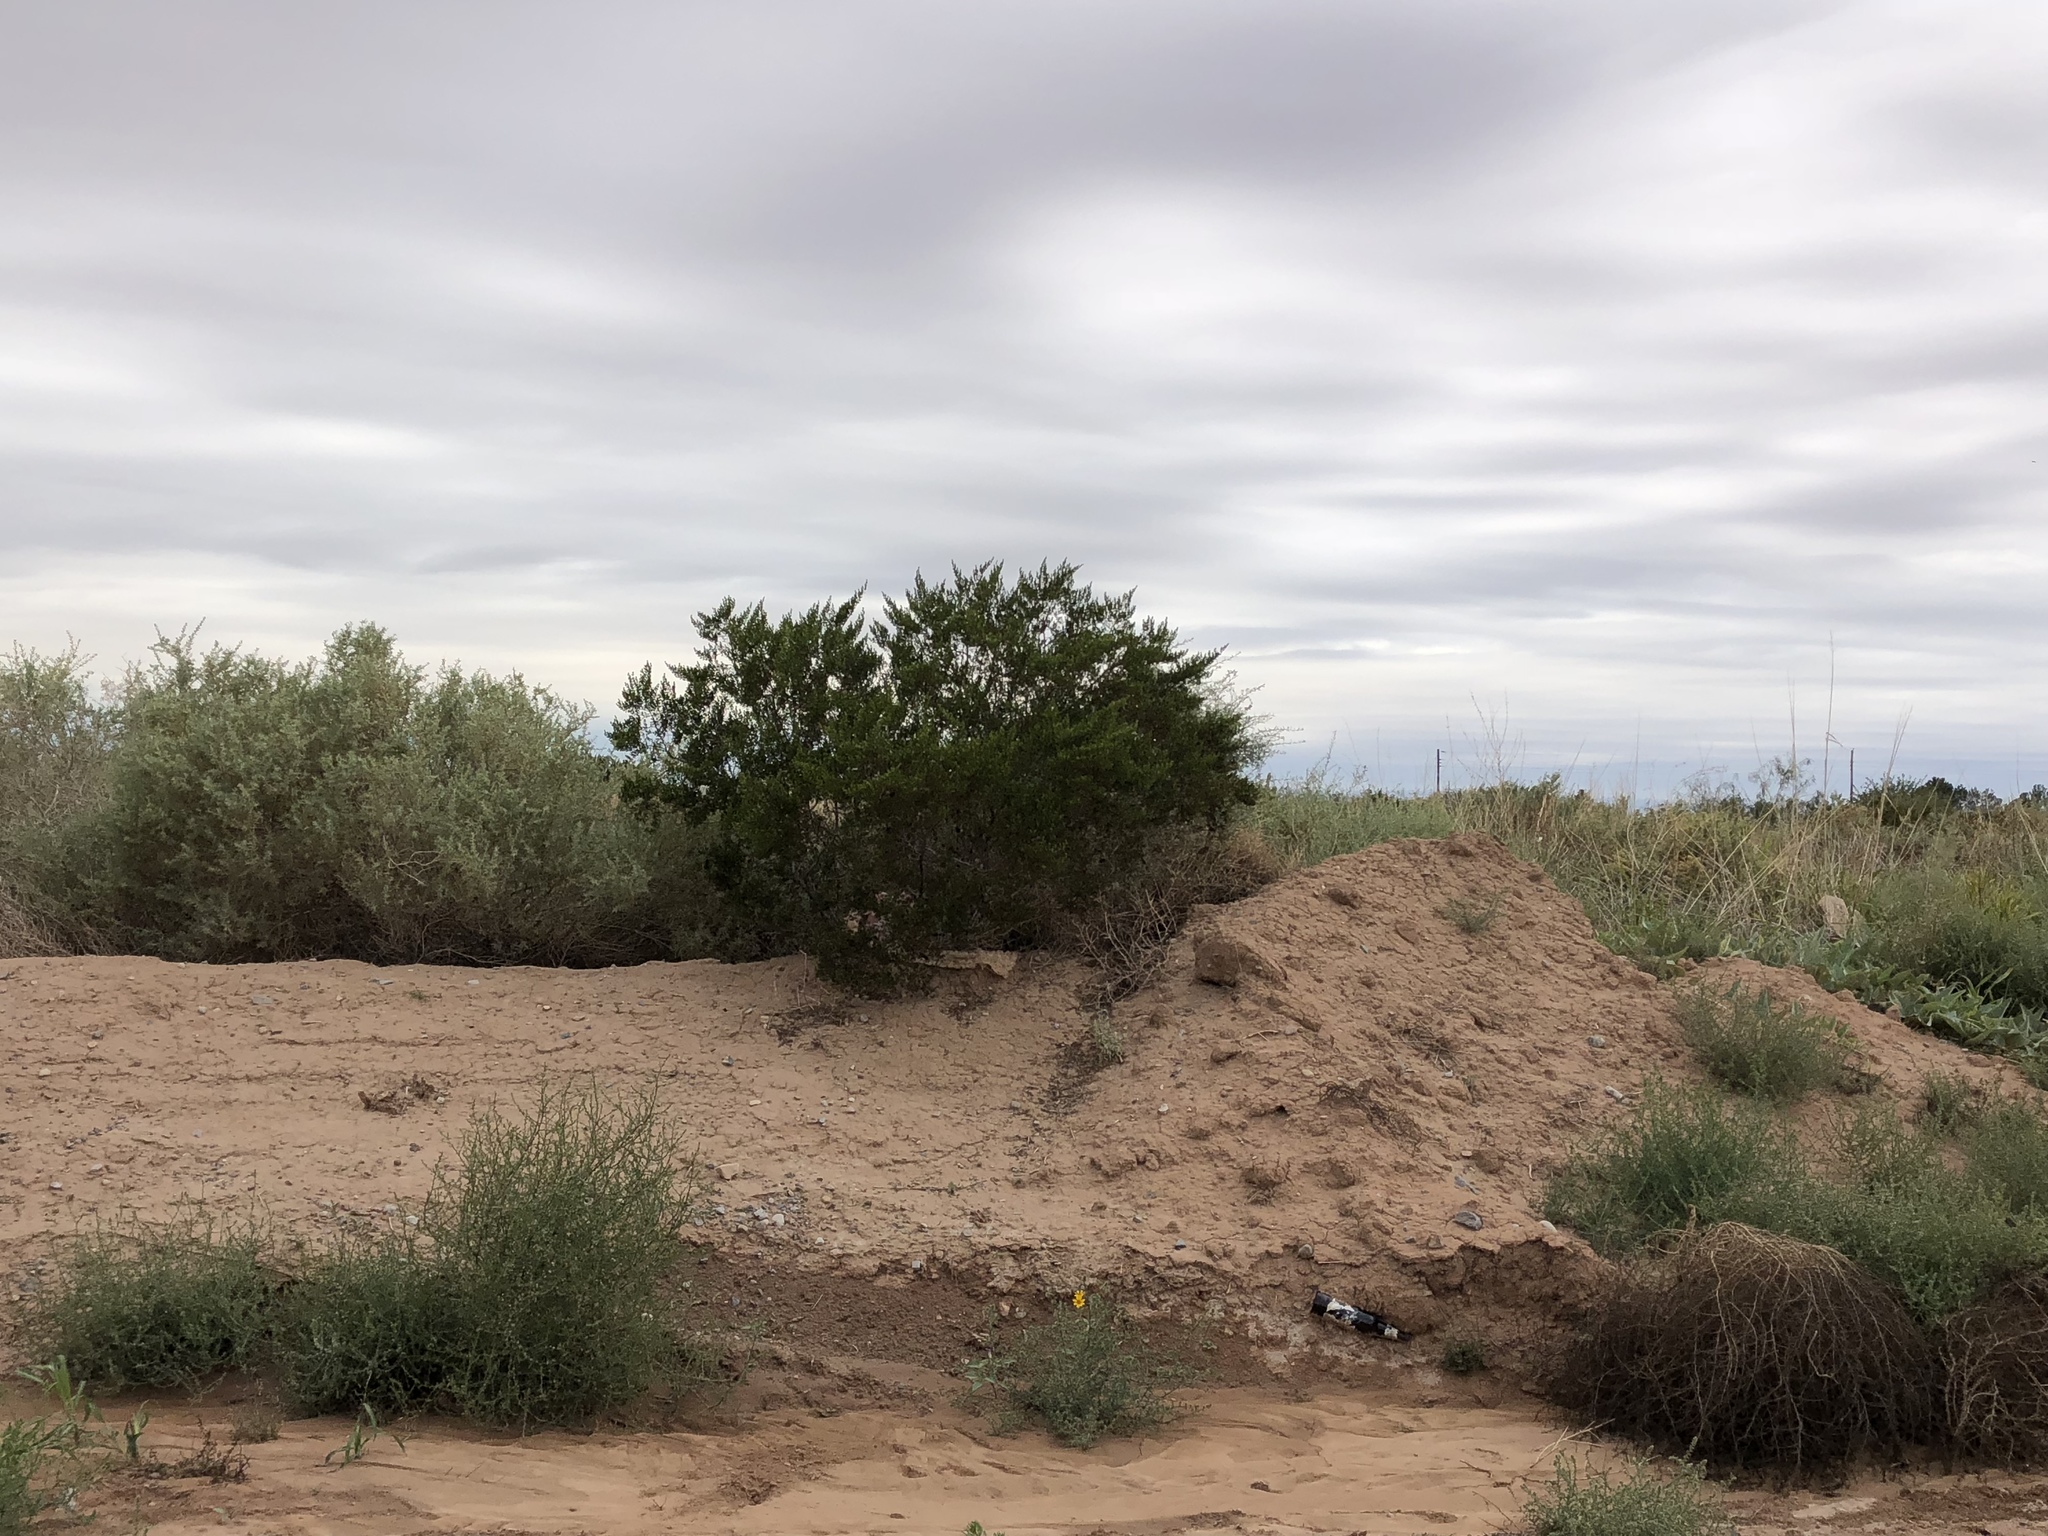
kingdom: Plantae
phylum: Tracheophyta
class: Magnoliopsida
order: Zygophyllales
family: Zygophyllaceae
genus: Larrea
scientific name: Larrea tridentata
